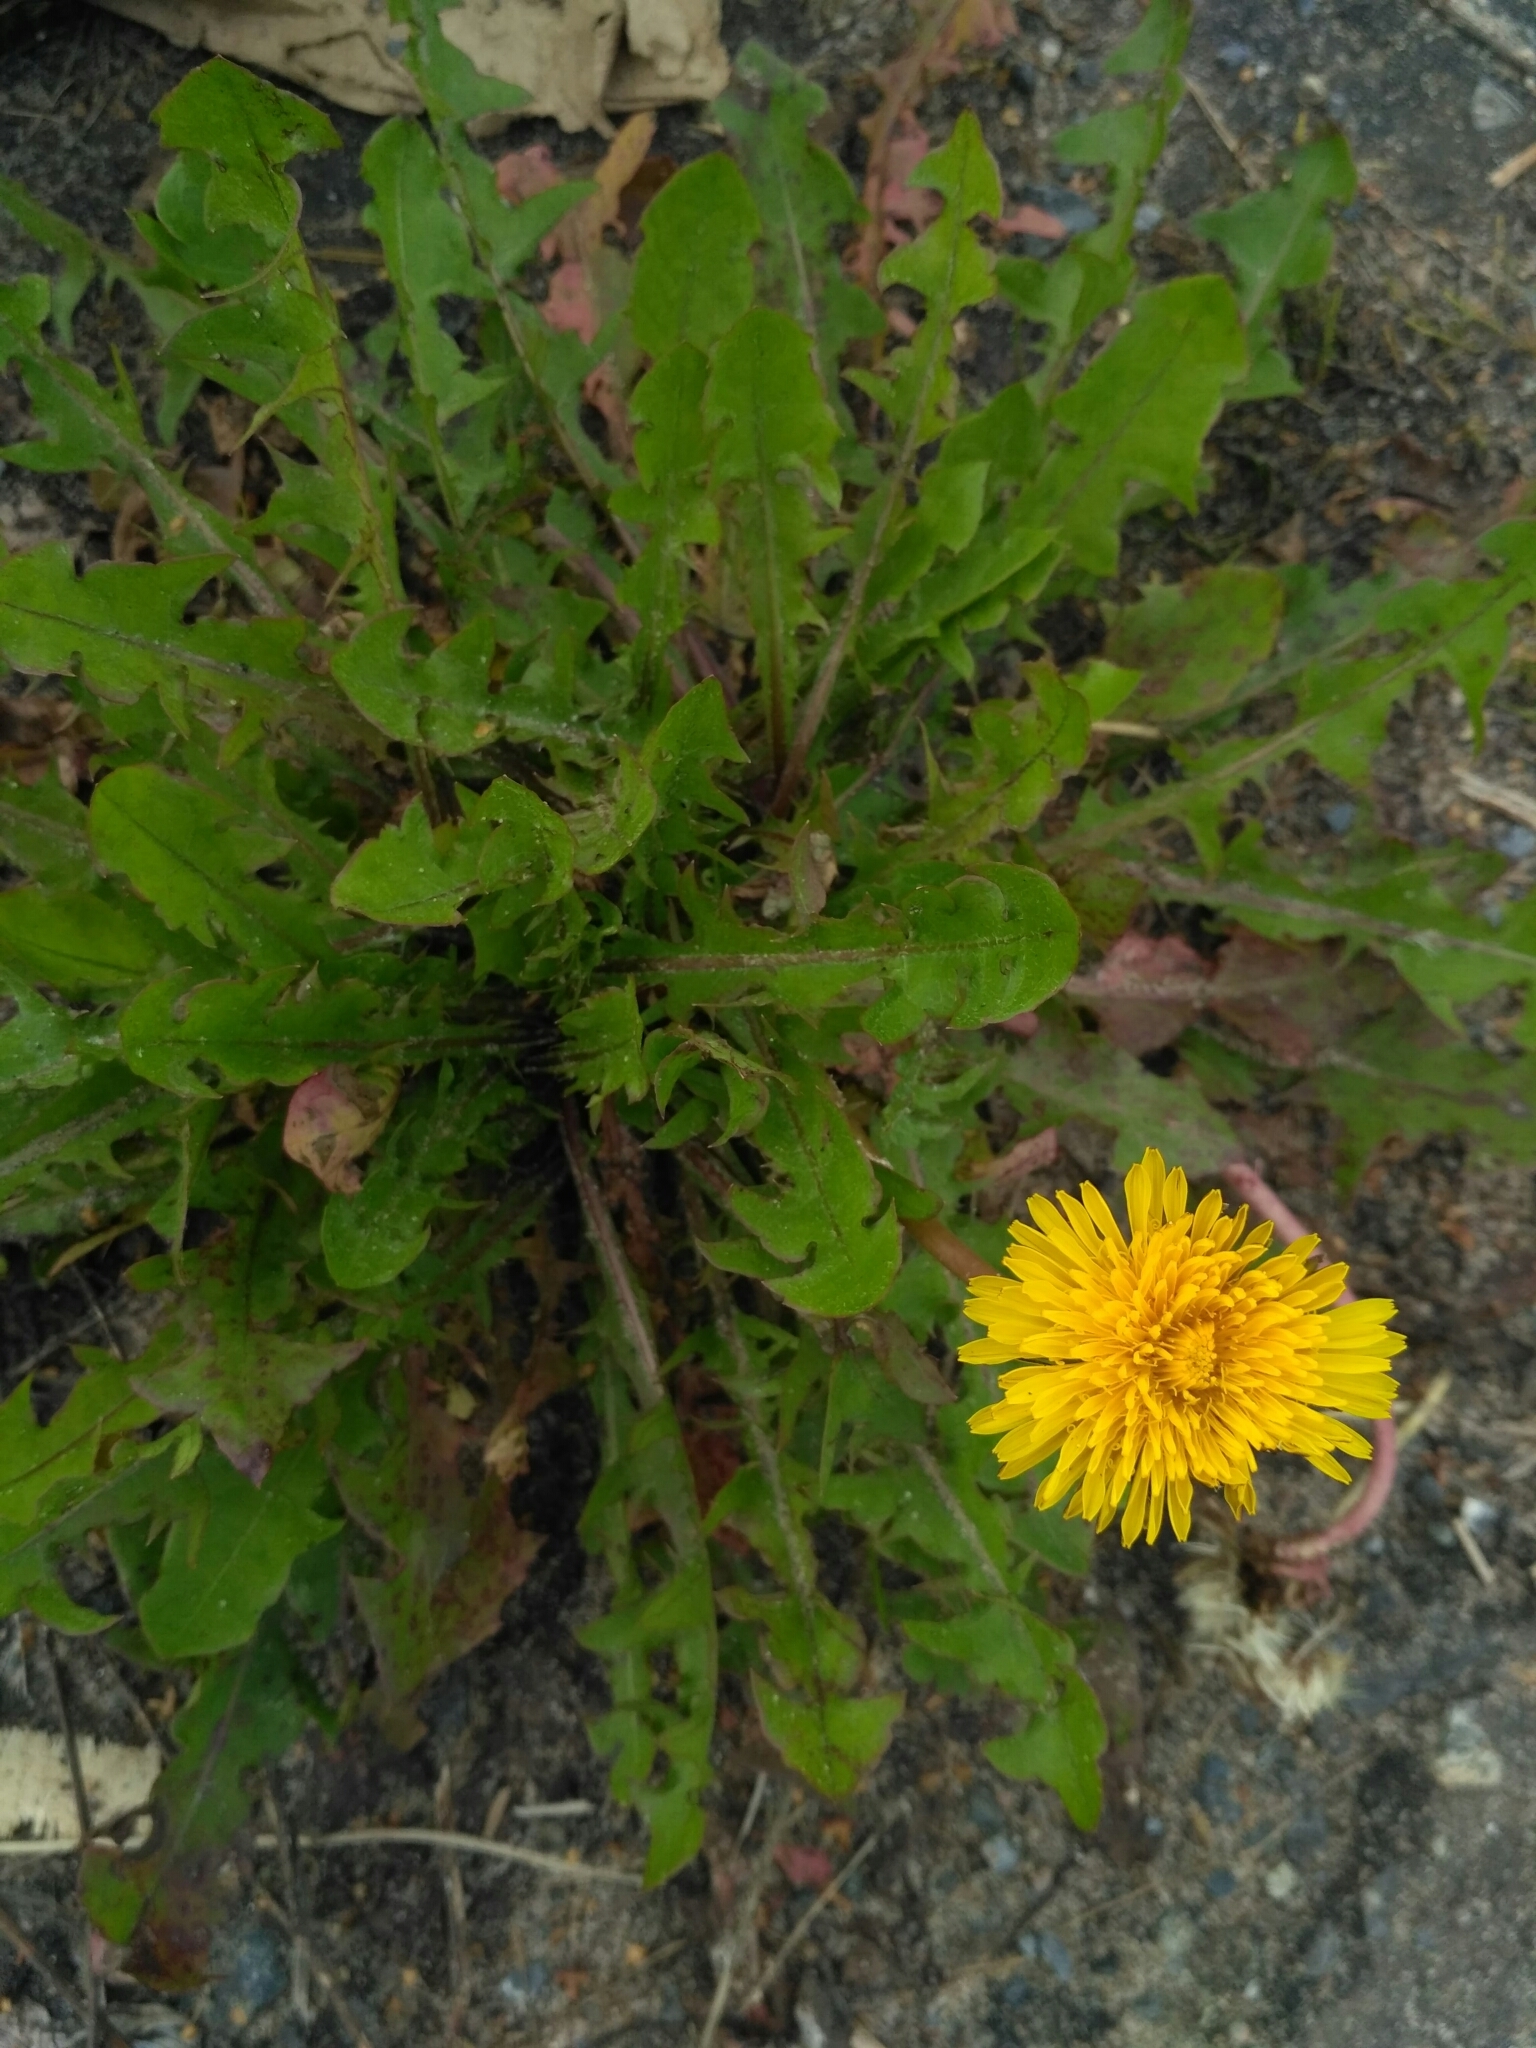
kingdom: Plantae
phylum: Tracheophyta
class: Magnoliopsida
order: Asterales
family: Asteraceae
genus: Taraxacum
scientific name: Taraxacum officinale
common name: Common dandelion
